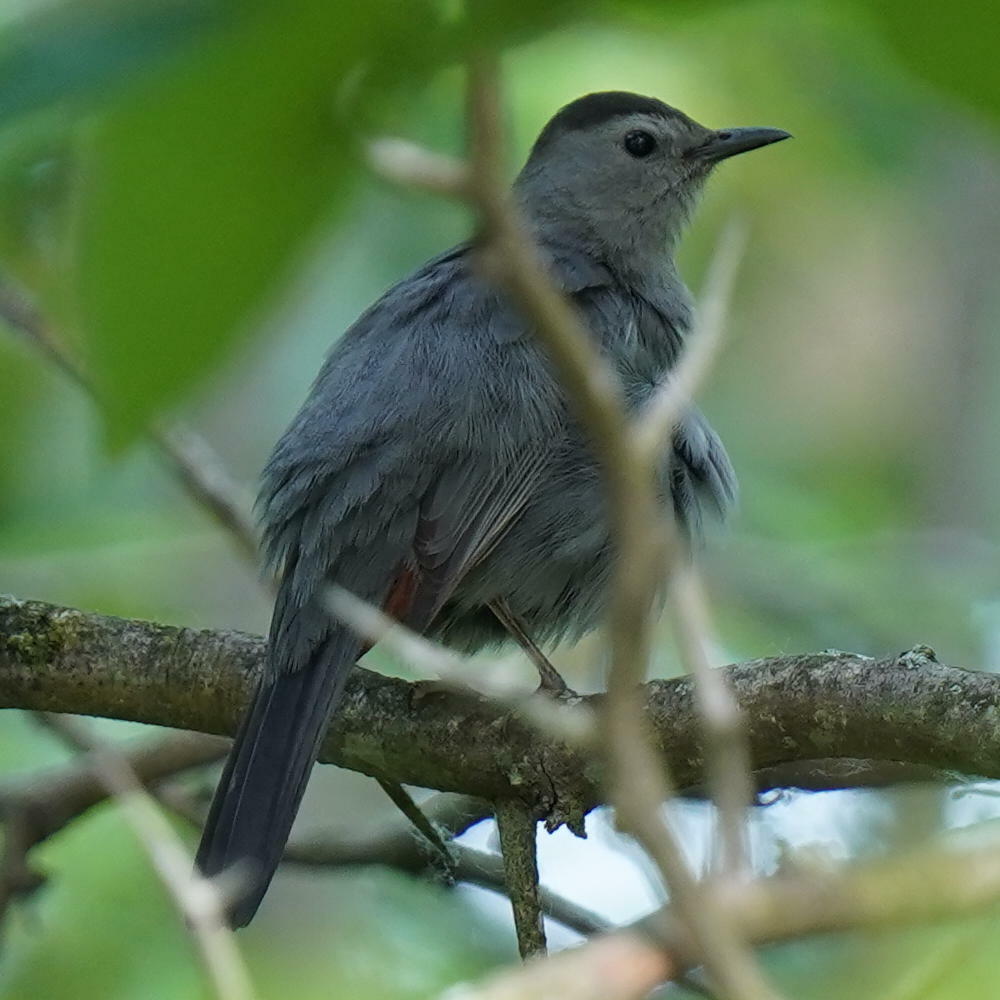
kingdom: Animalia
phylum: Chordata
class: Aves
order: Passeriformes
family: Mimidae
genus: Dumetella
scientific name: Dumetella carolinensis
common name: Gray catbird
